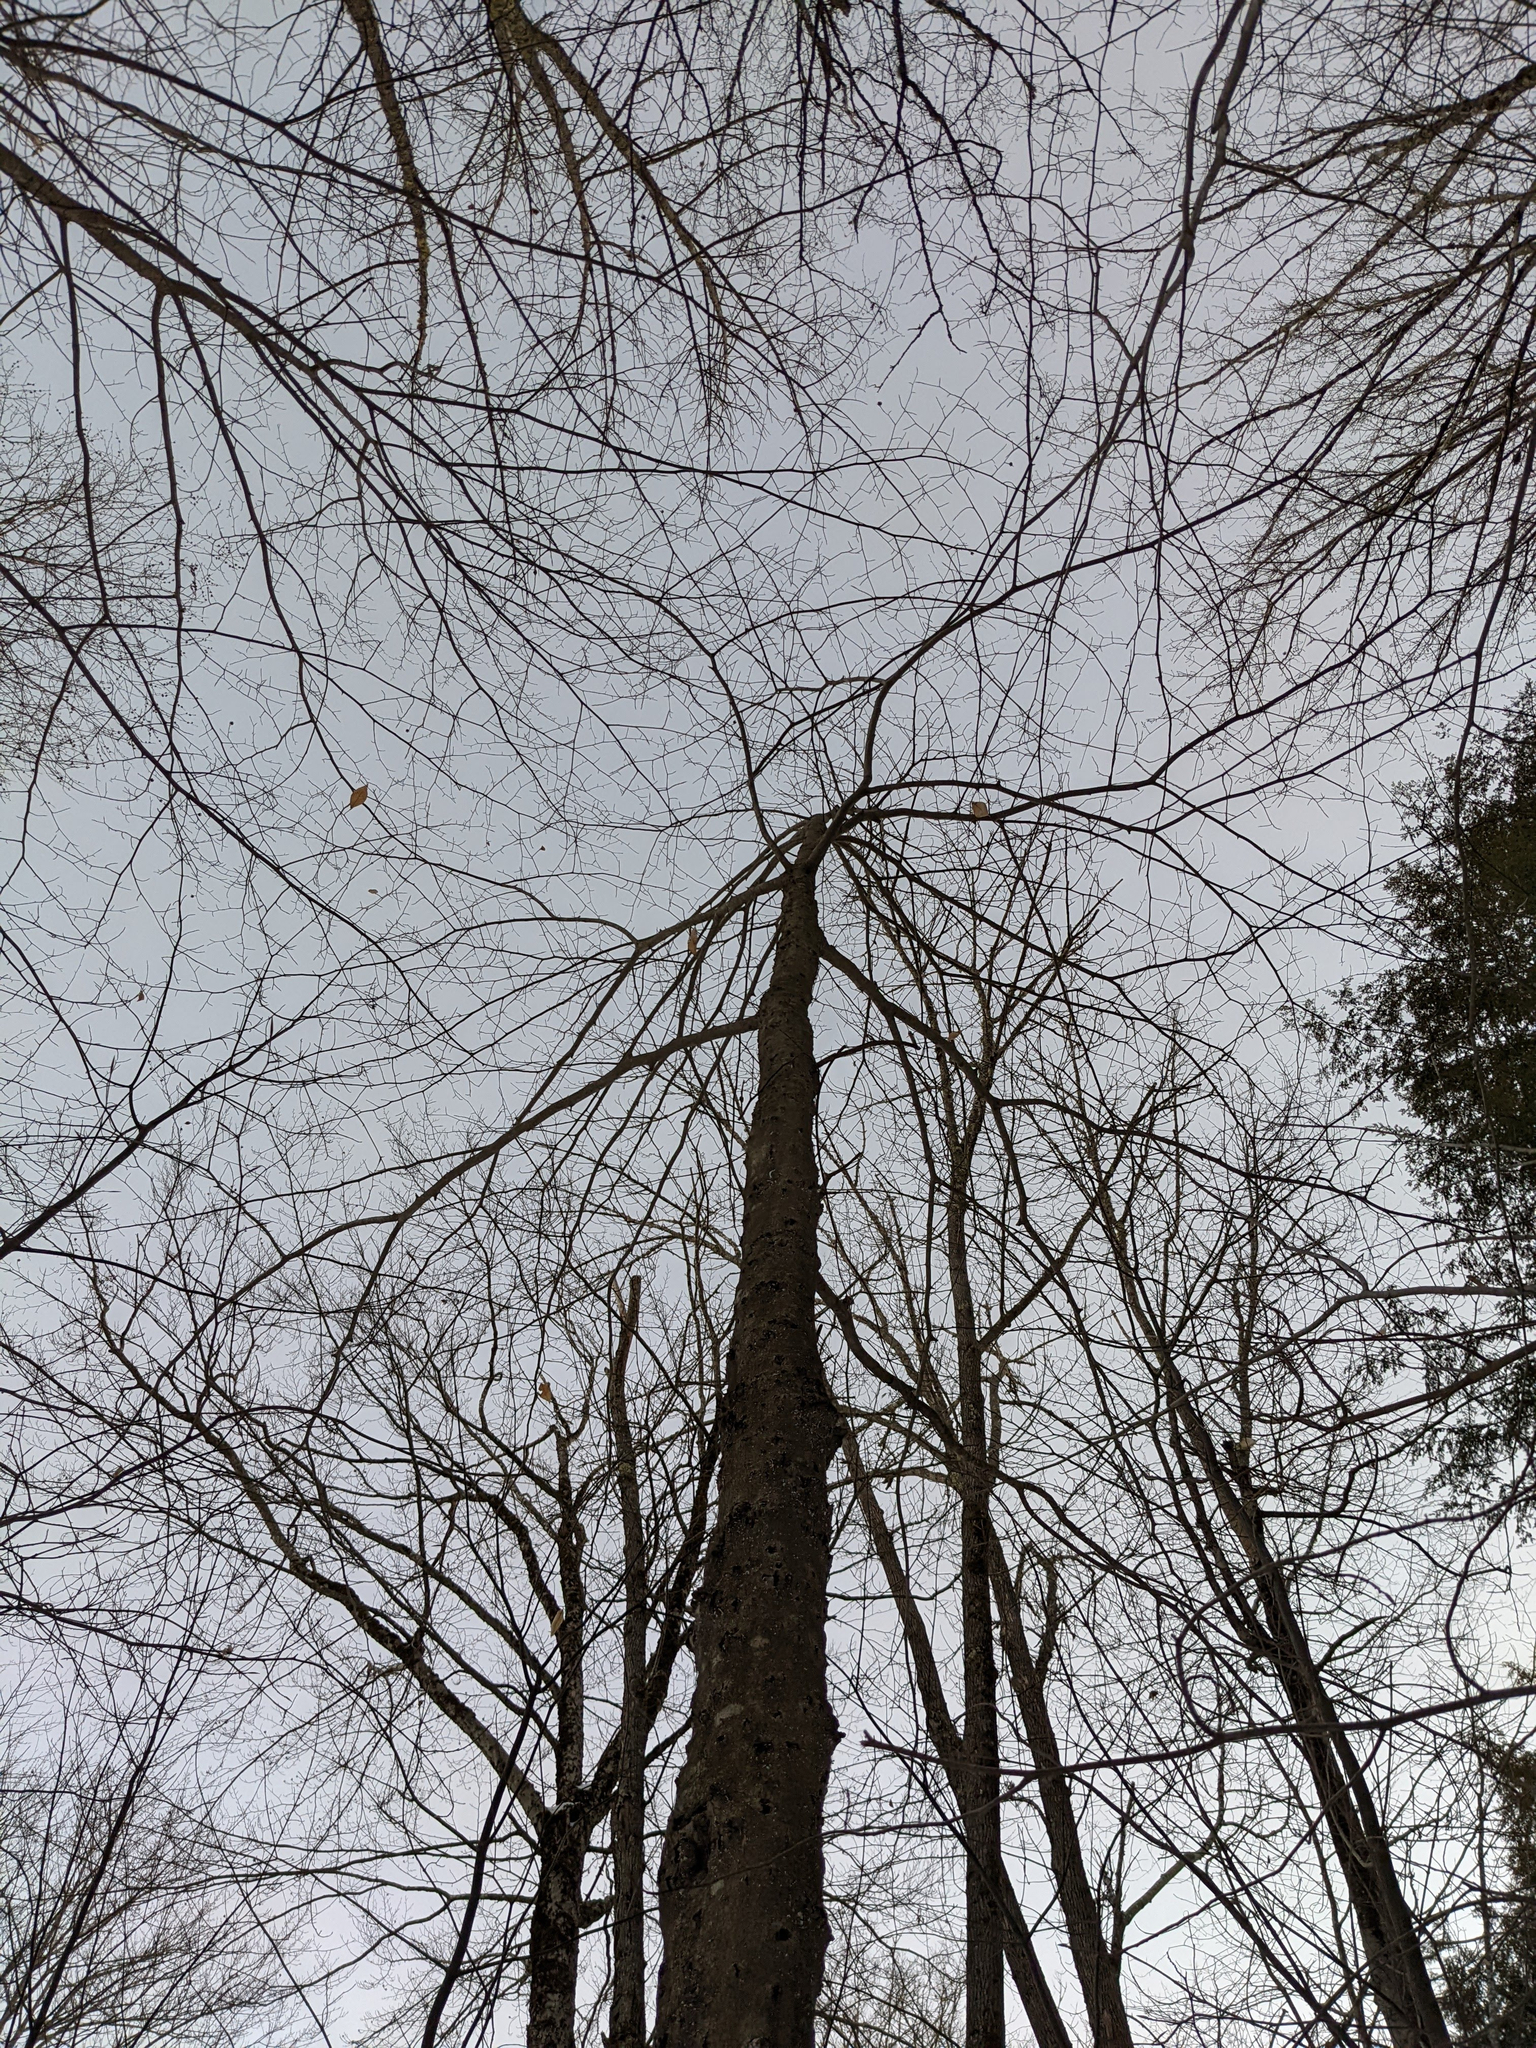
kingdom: Plantae
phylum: Tracheophyta
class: Magnoliopsida
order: Fagales
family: Fagaceae
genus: Fagus
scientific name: Fagus grandifolia
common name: American beech
